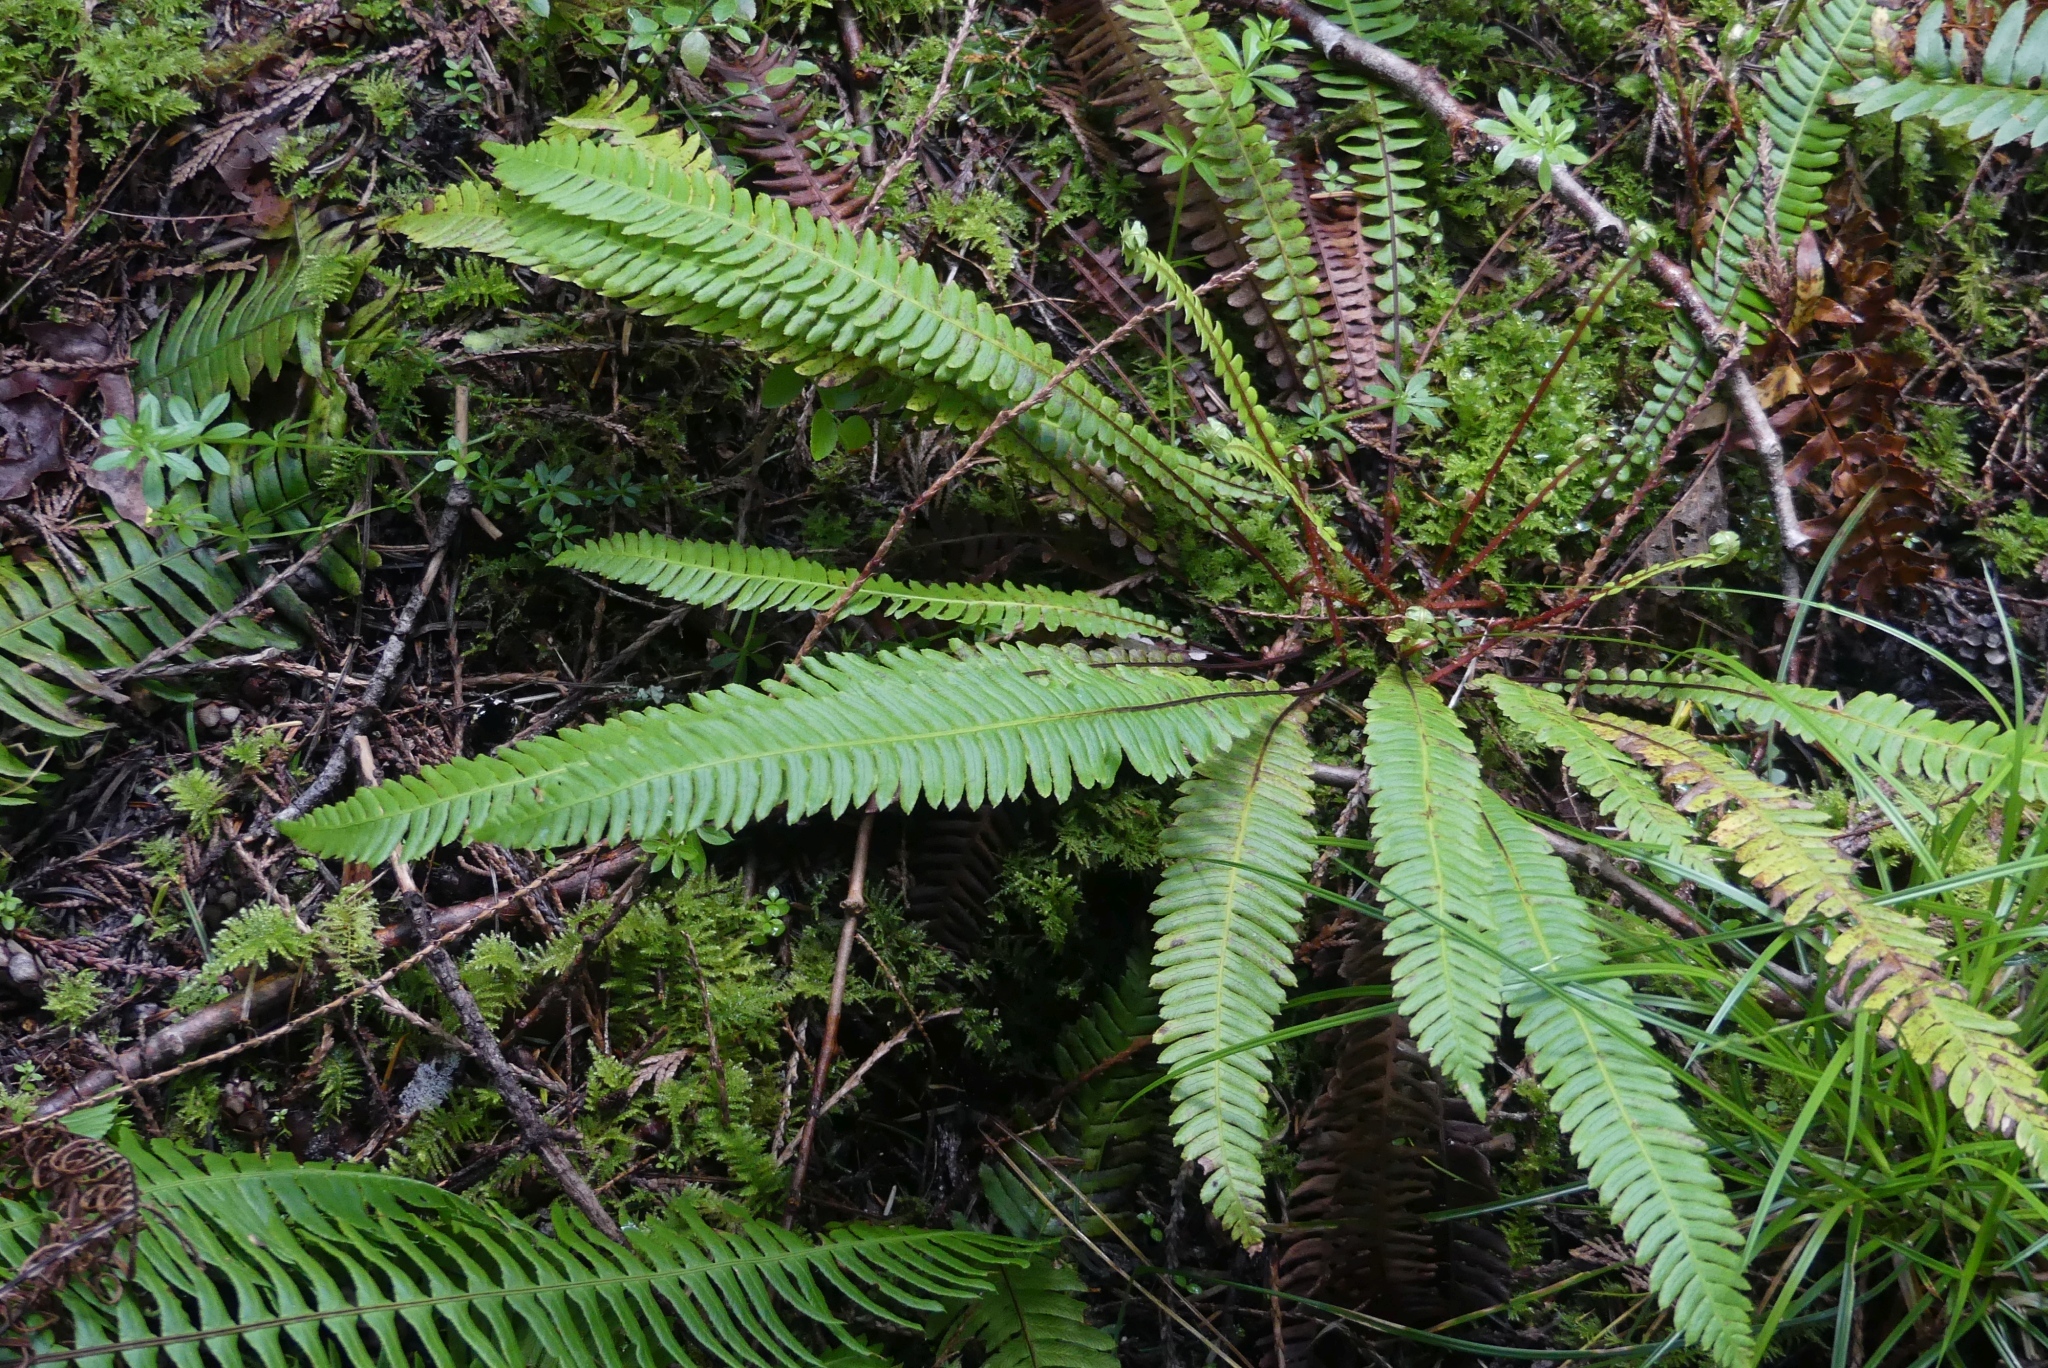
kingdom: Plantae
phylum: Tracheophyta
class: Polypodiopsida
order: Polypodiales
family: Blechnaceae
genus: Struthiopteris
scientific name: Struthiopteris spicant
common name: Deer fern
